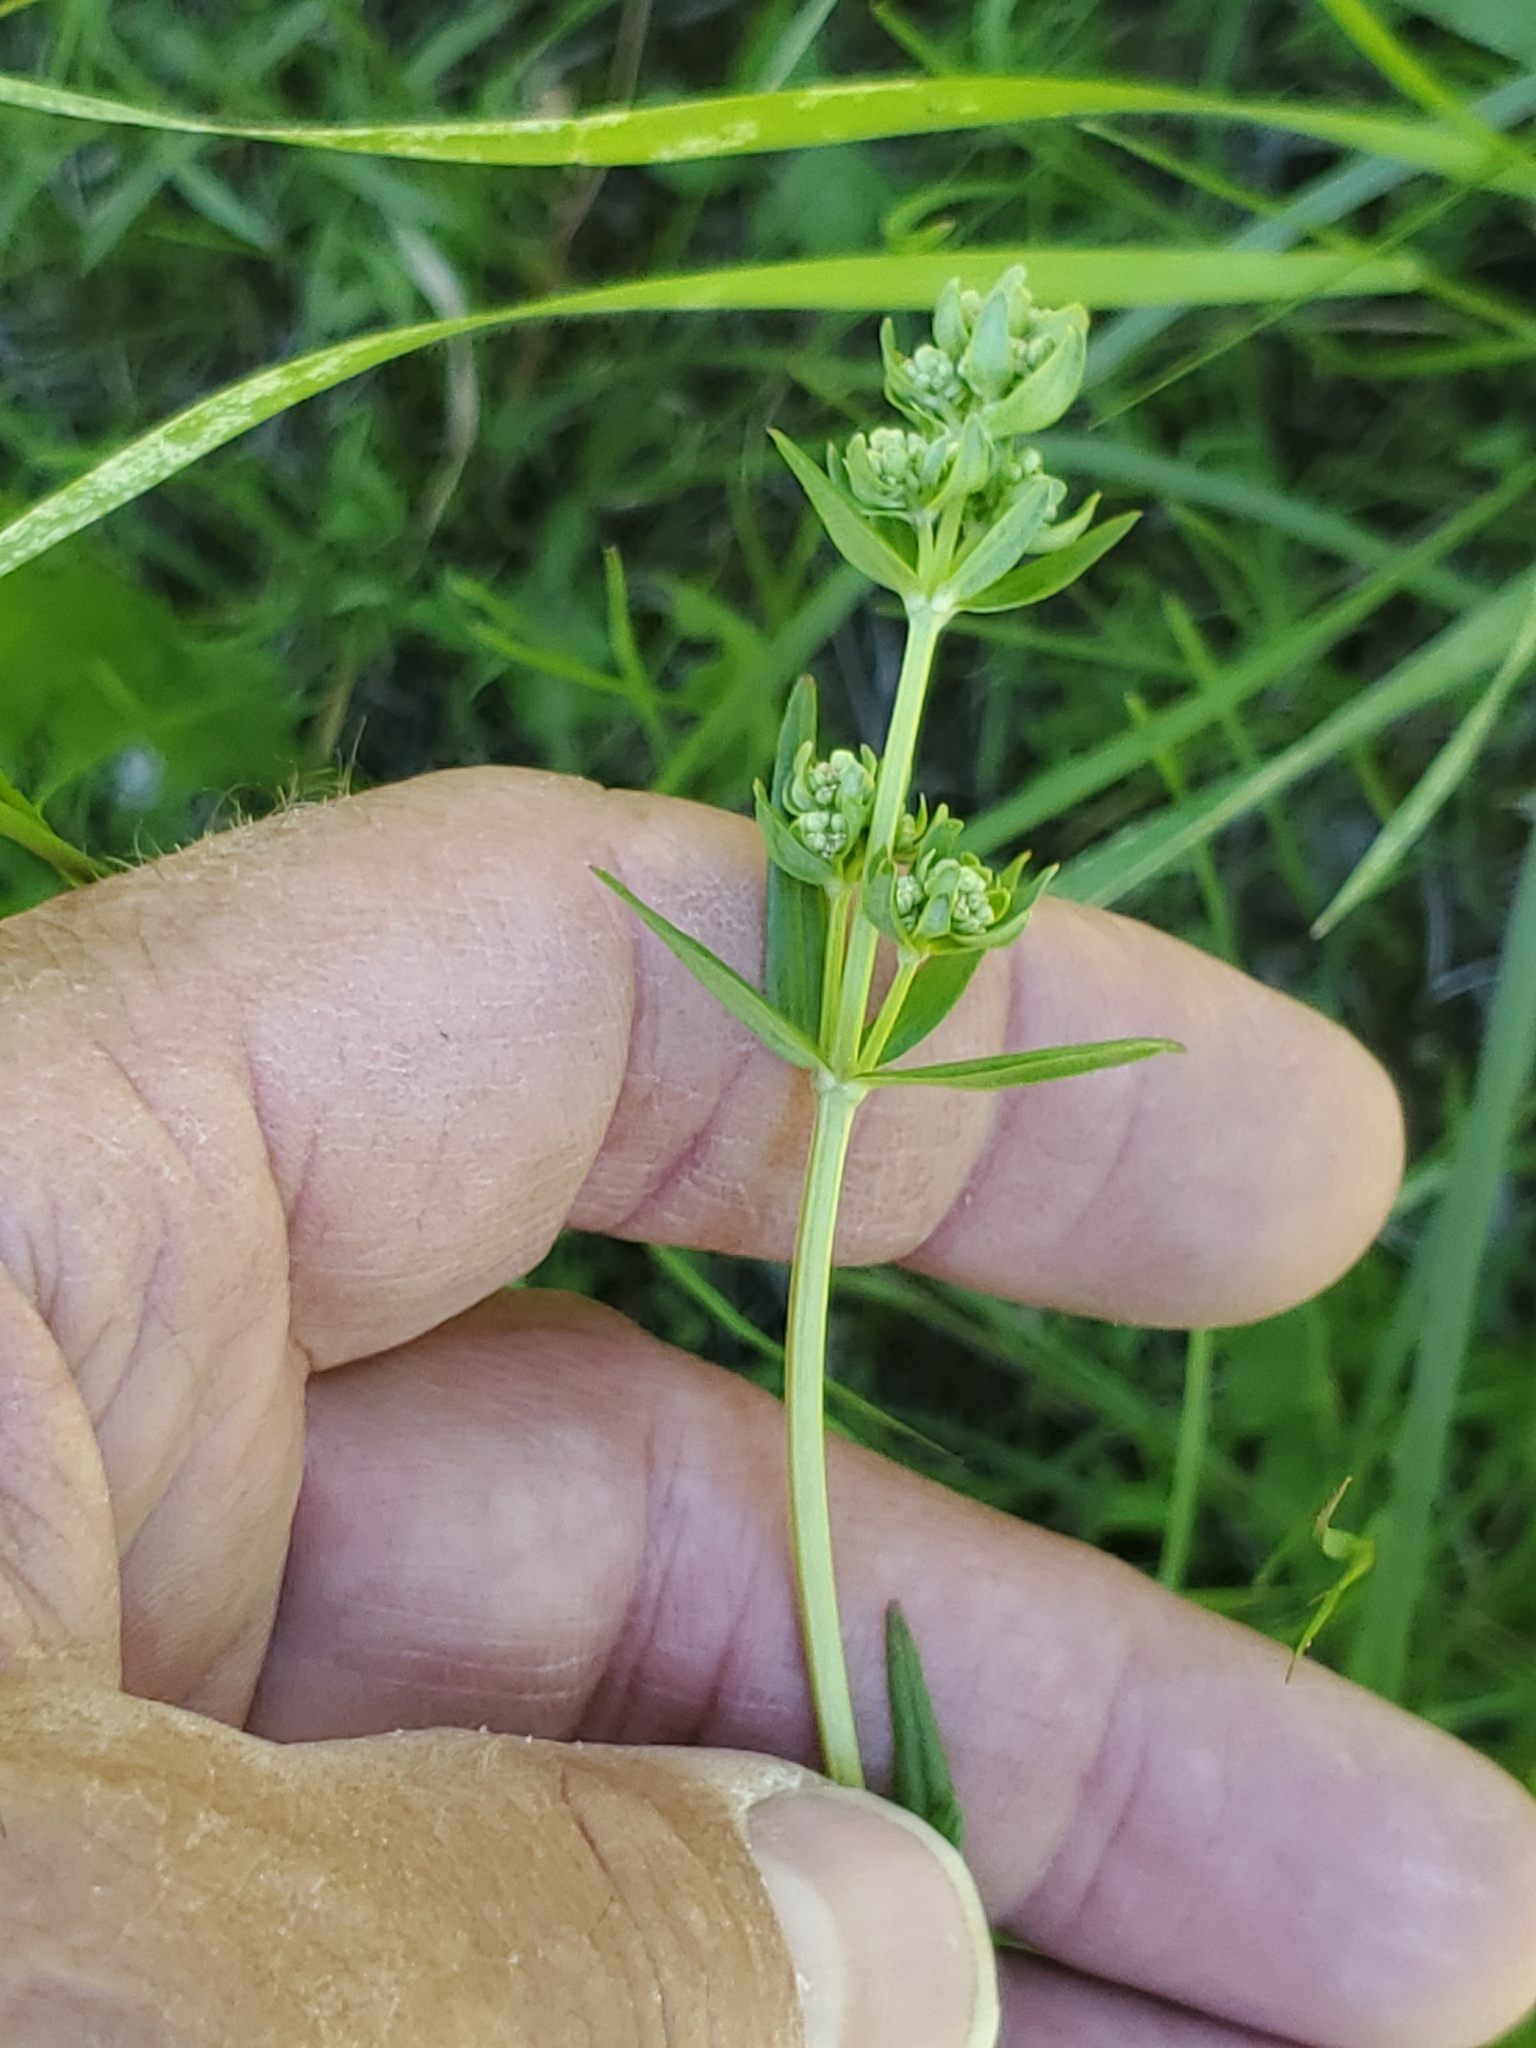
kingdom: Plantae
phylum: Tracheophyta
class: Magnoliopsida
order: Gentianales
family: Rubiaceae
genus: Galium
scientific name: Galium boreale
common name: Northern bedstraw
